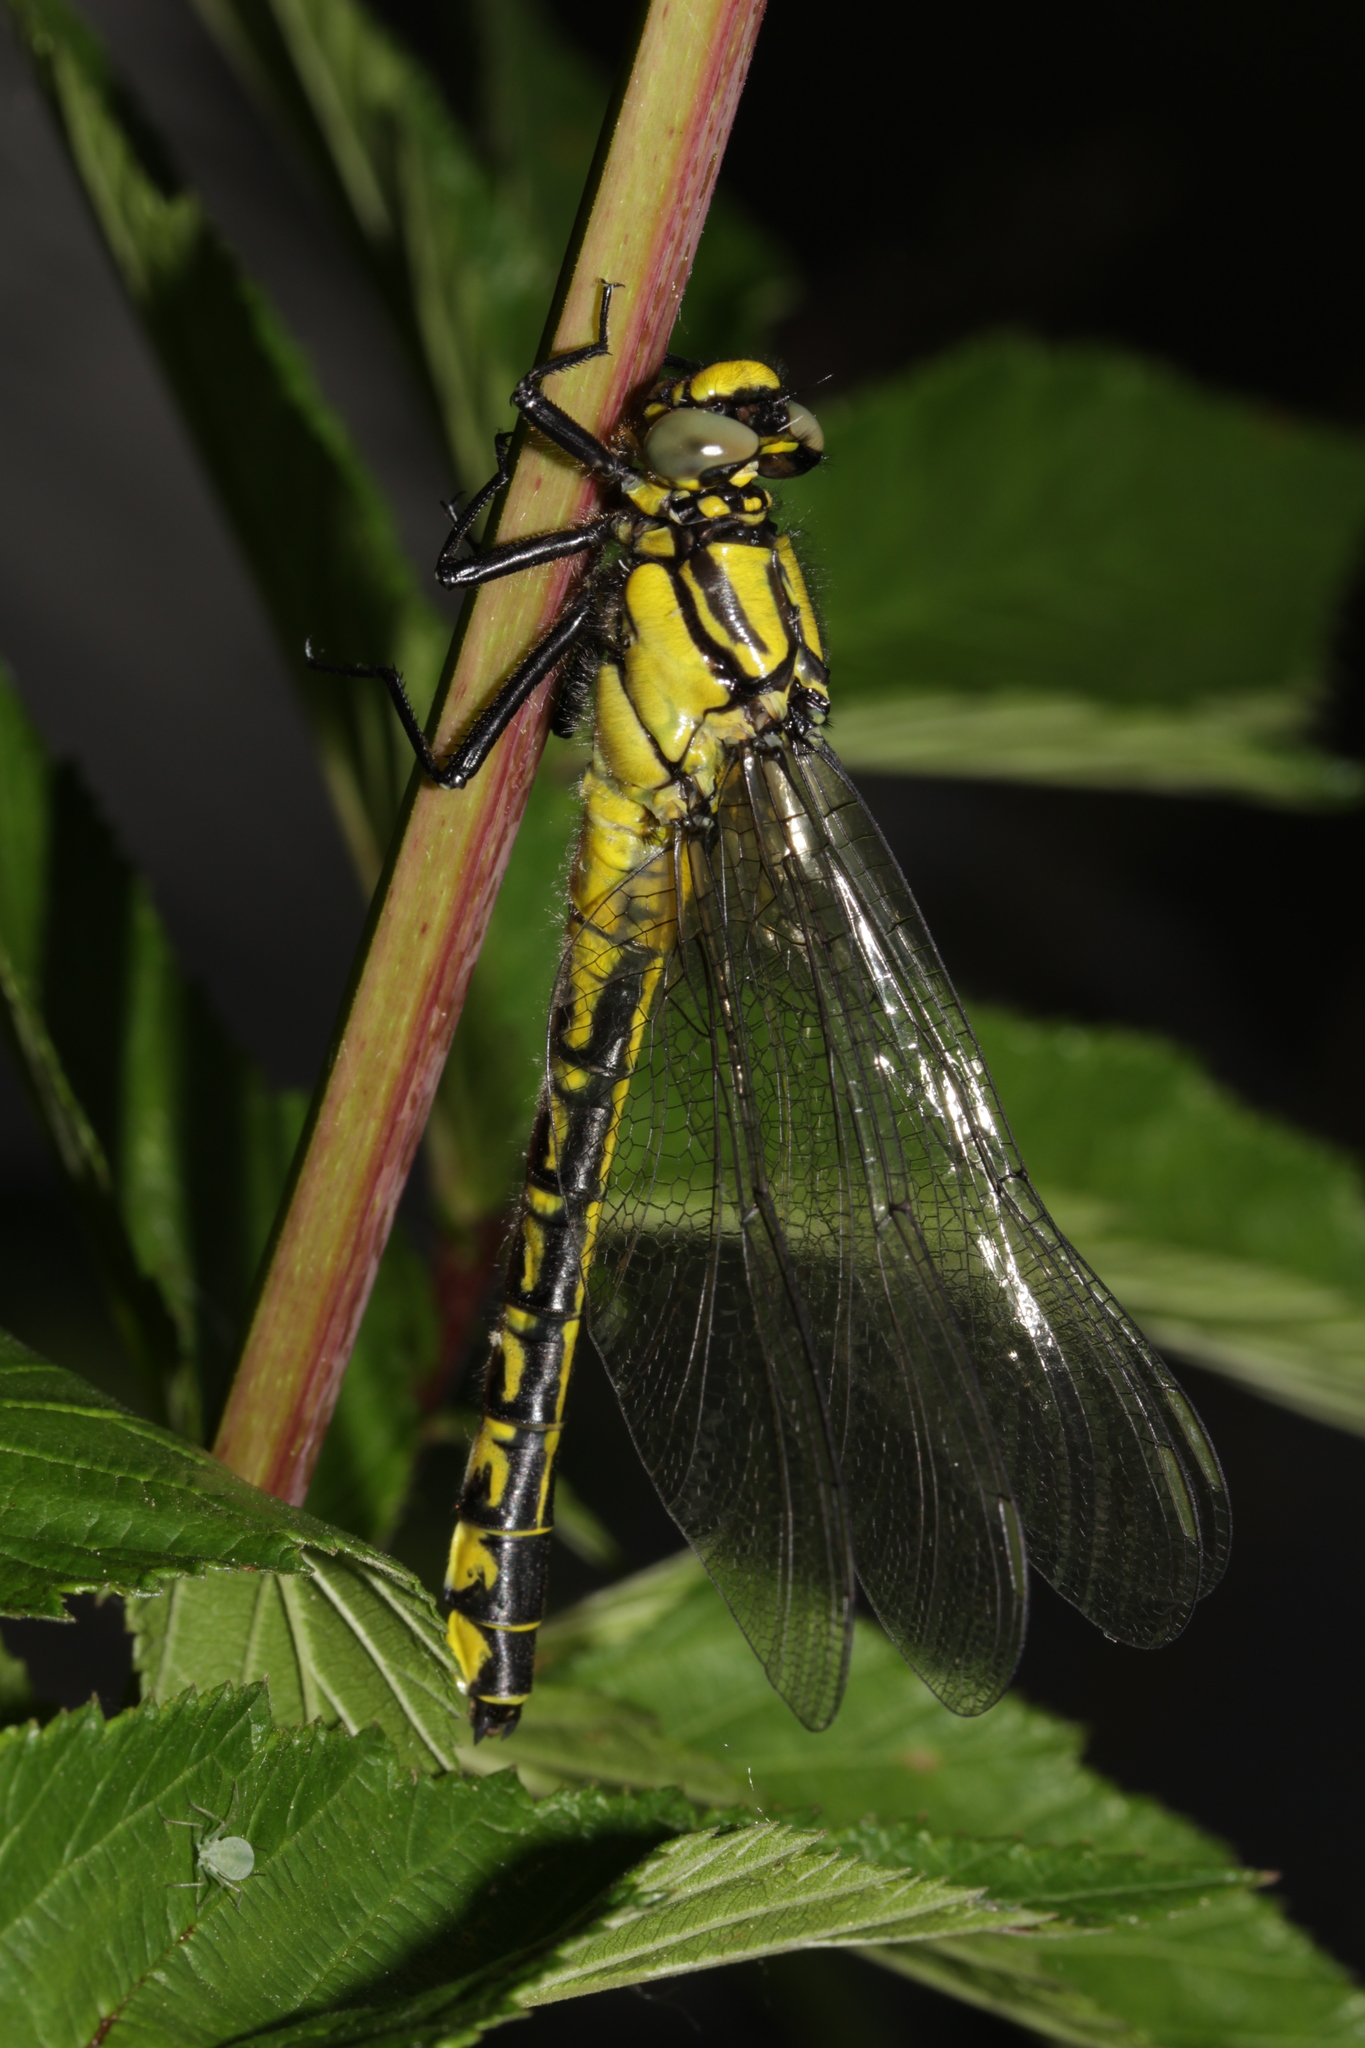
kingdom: Animalia
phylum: Arthropoda
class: Insecta
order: Odonata
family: Gomphidae
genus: Gomphus
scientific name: Gomphus vulgatissimus
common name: Club-tailed dragonfly
